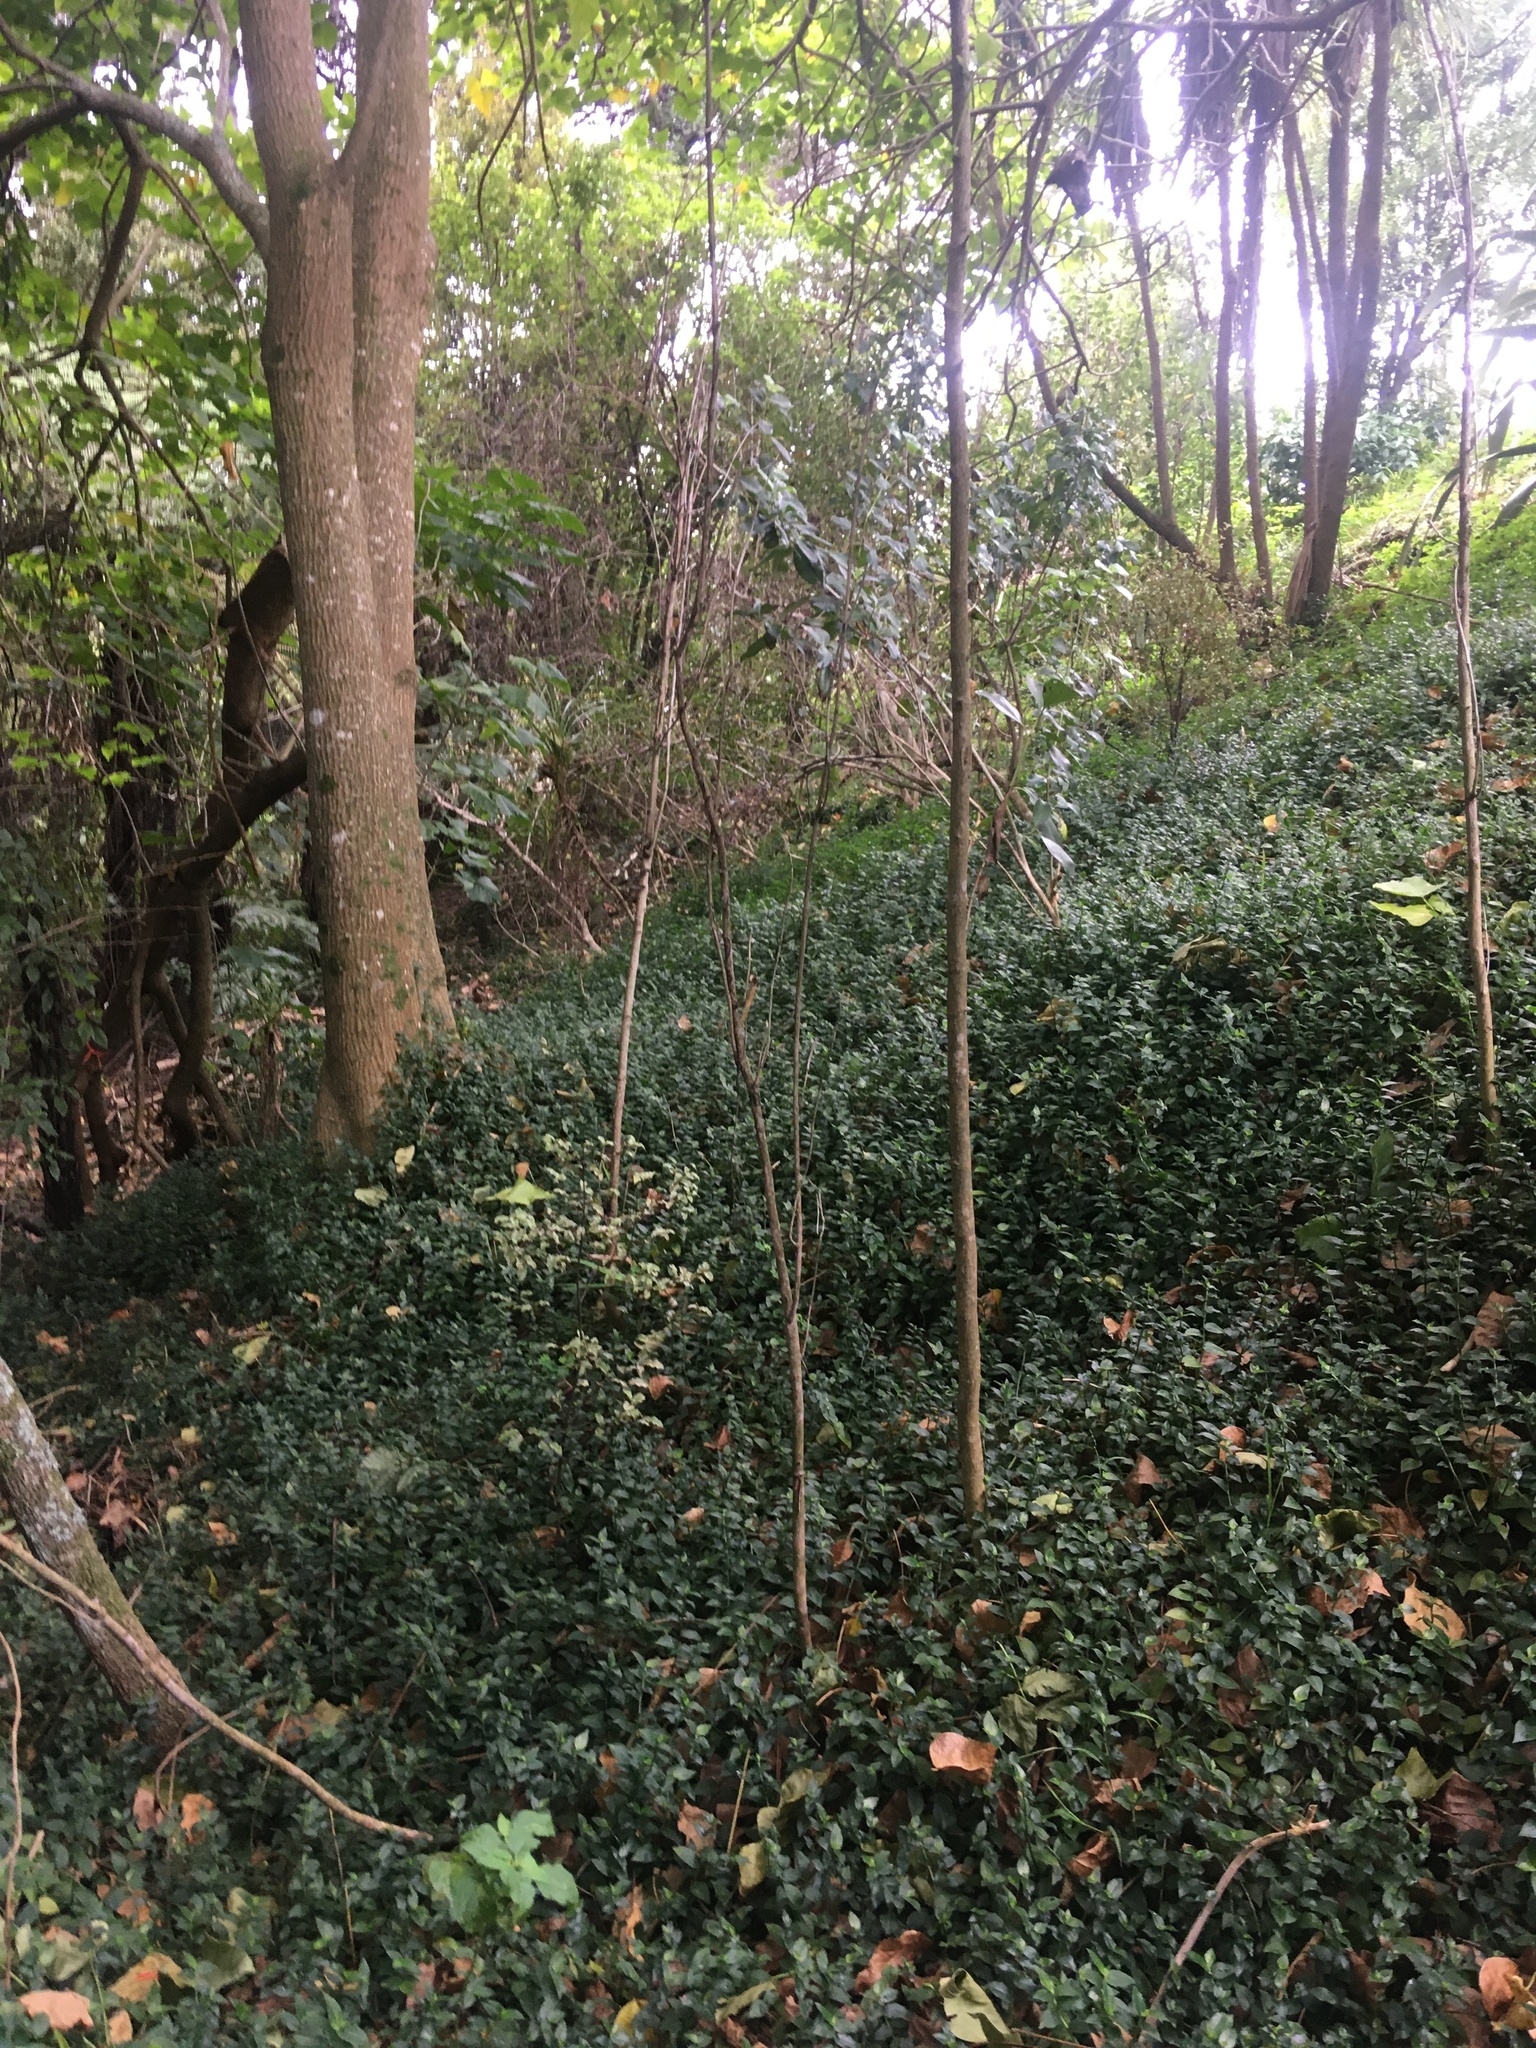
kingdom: Plantae
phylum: Tracheophyta
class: Magnoliopsida
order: Fabales
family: Fabaceae
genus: Erythrina
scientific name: Erythrina sykesii
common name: Coraltree
